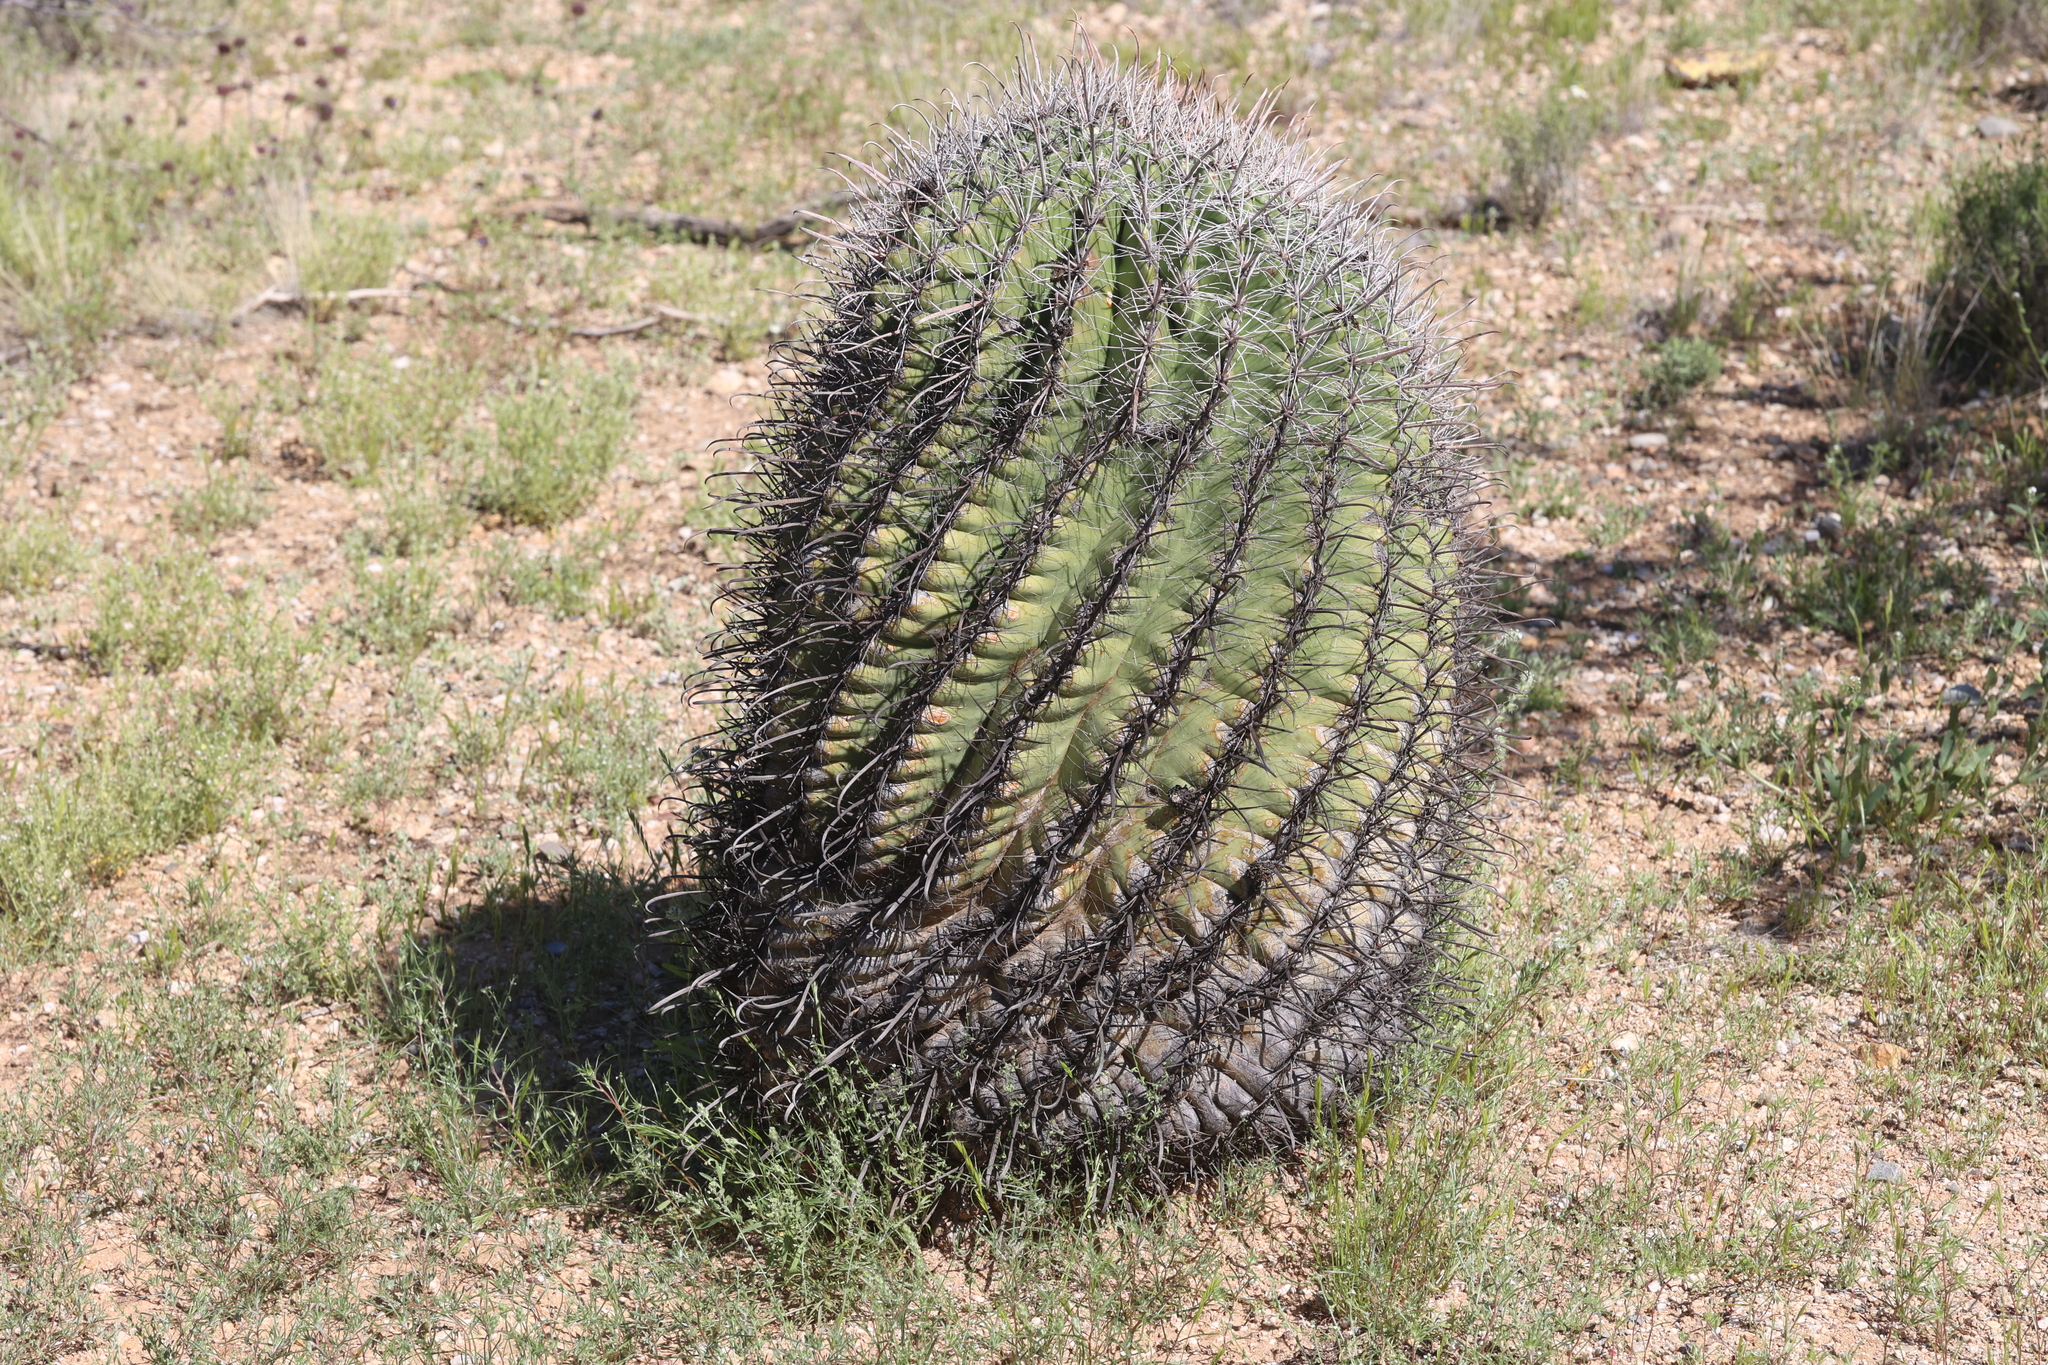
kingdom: Plantae
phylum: Tracheophyta
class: Magnoliopsida
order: Caryophyllales
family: Cactaceae
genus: Ferocactus
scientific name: Ferocactus wislizeni
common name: Candy barrel cactus
